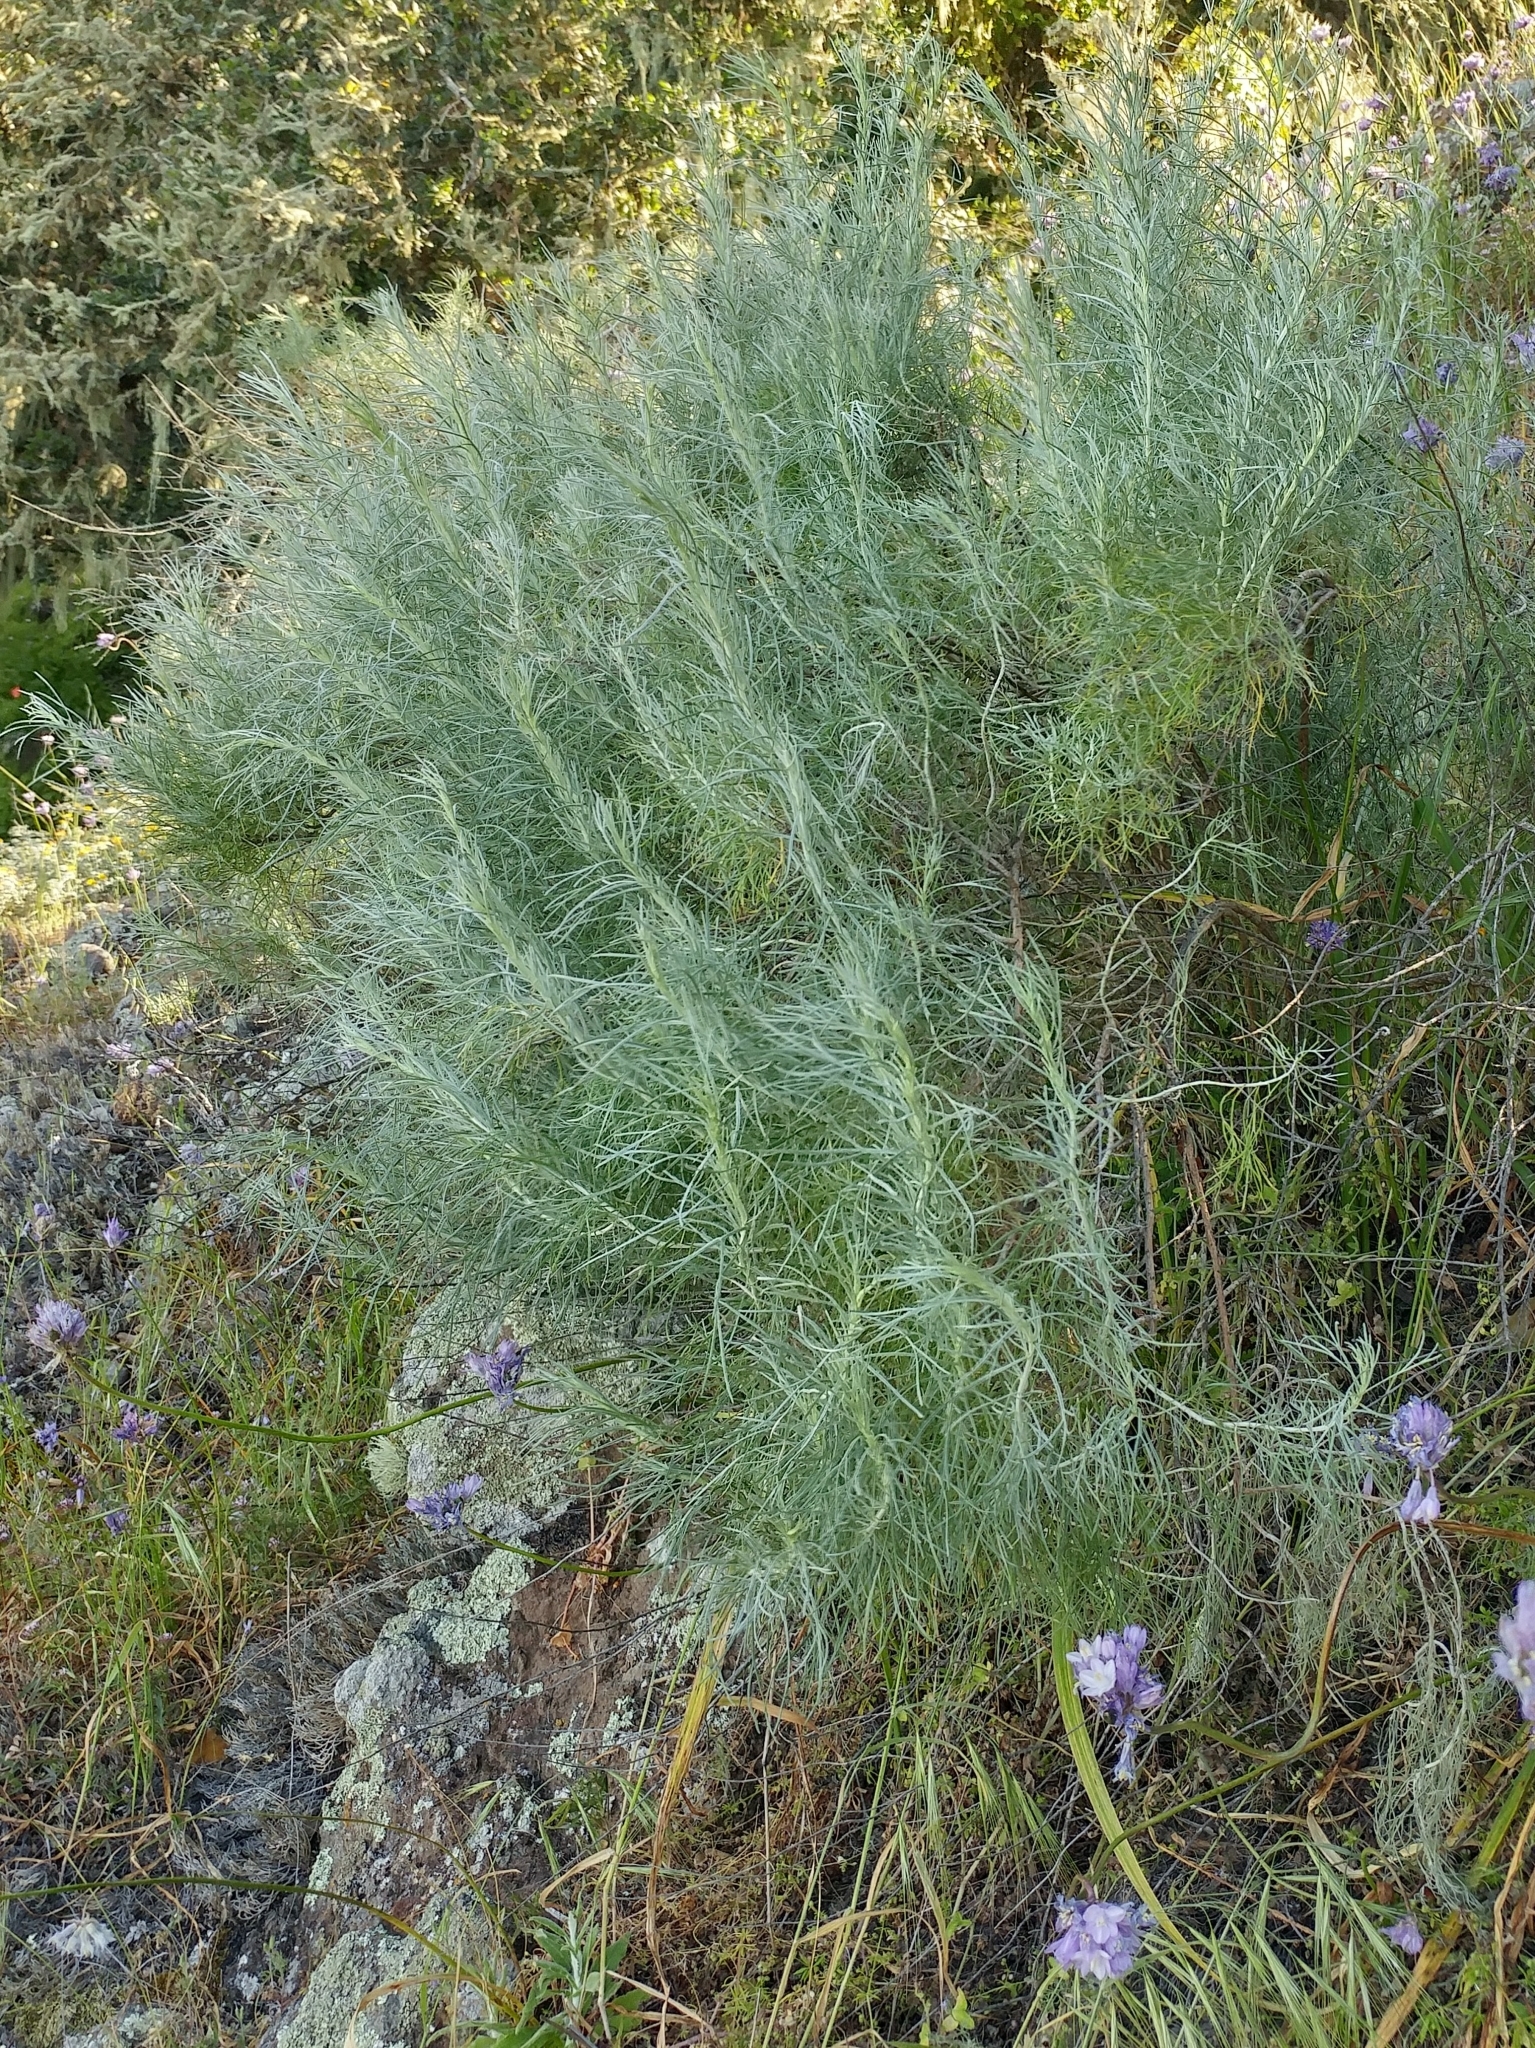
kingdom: Plantae
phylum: Tracheophyta
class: Magnoliopsida
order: Asterales
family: Asteraceae
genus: Artemisia
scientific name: Artemisia californica
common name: California sagebrush
